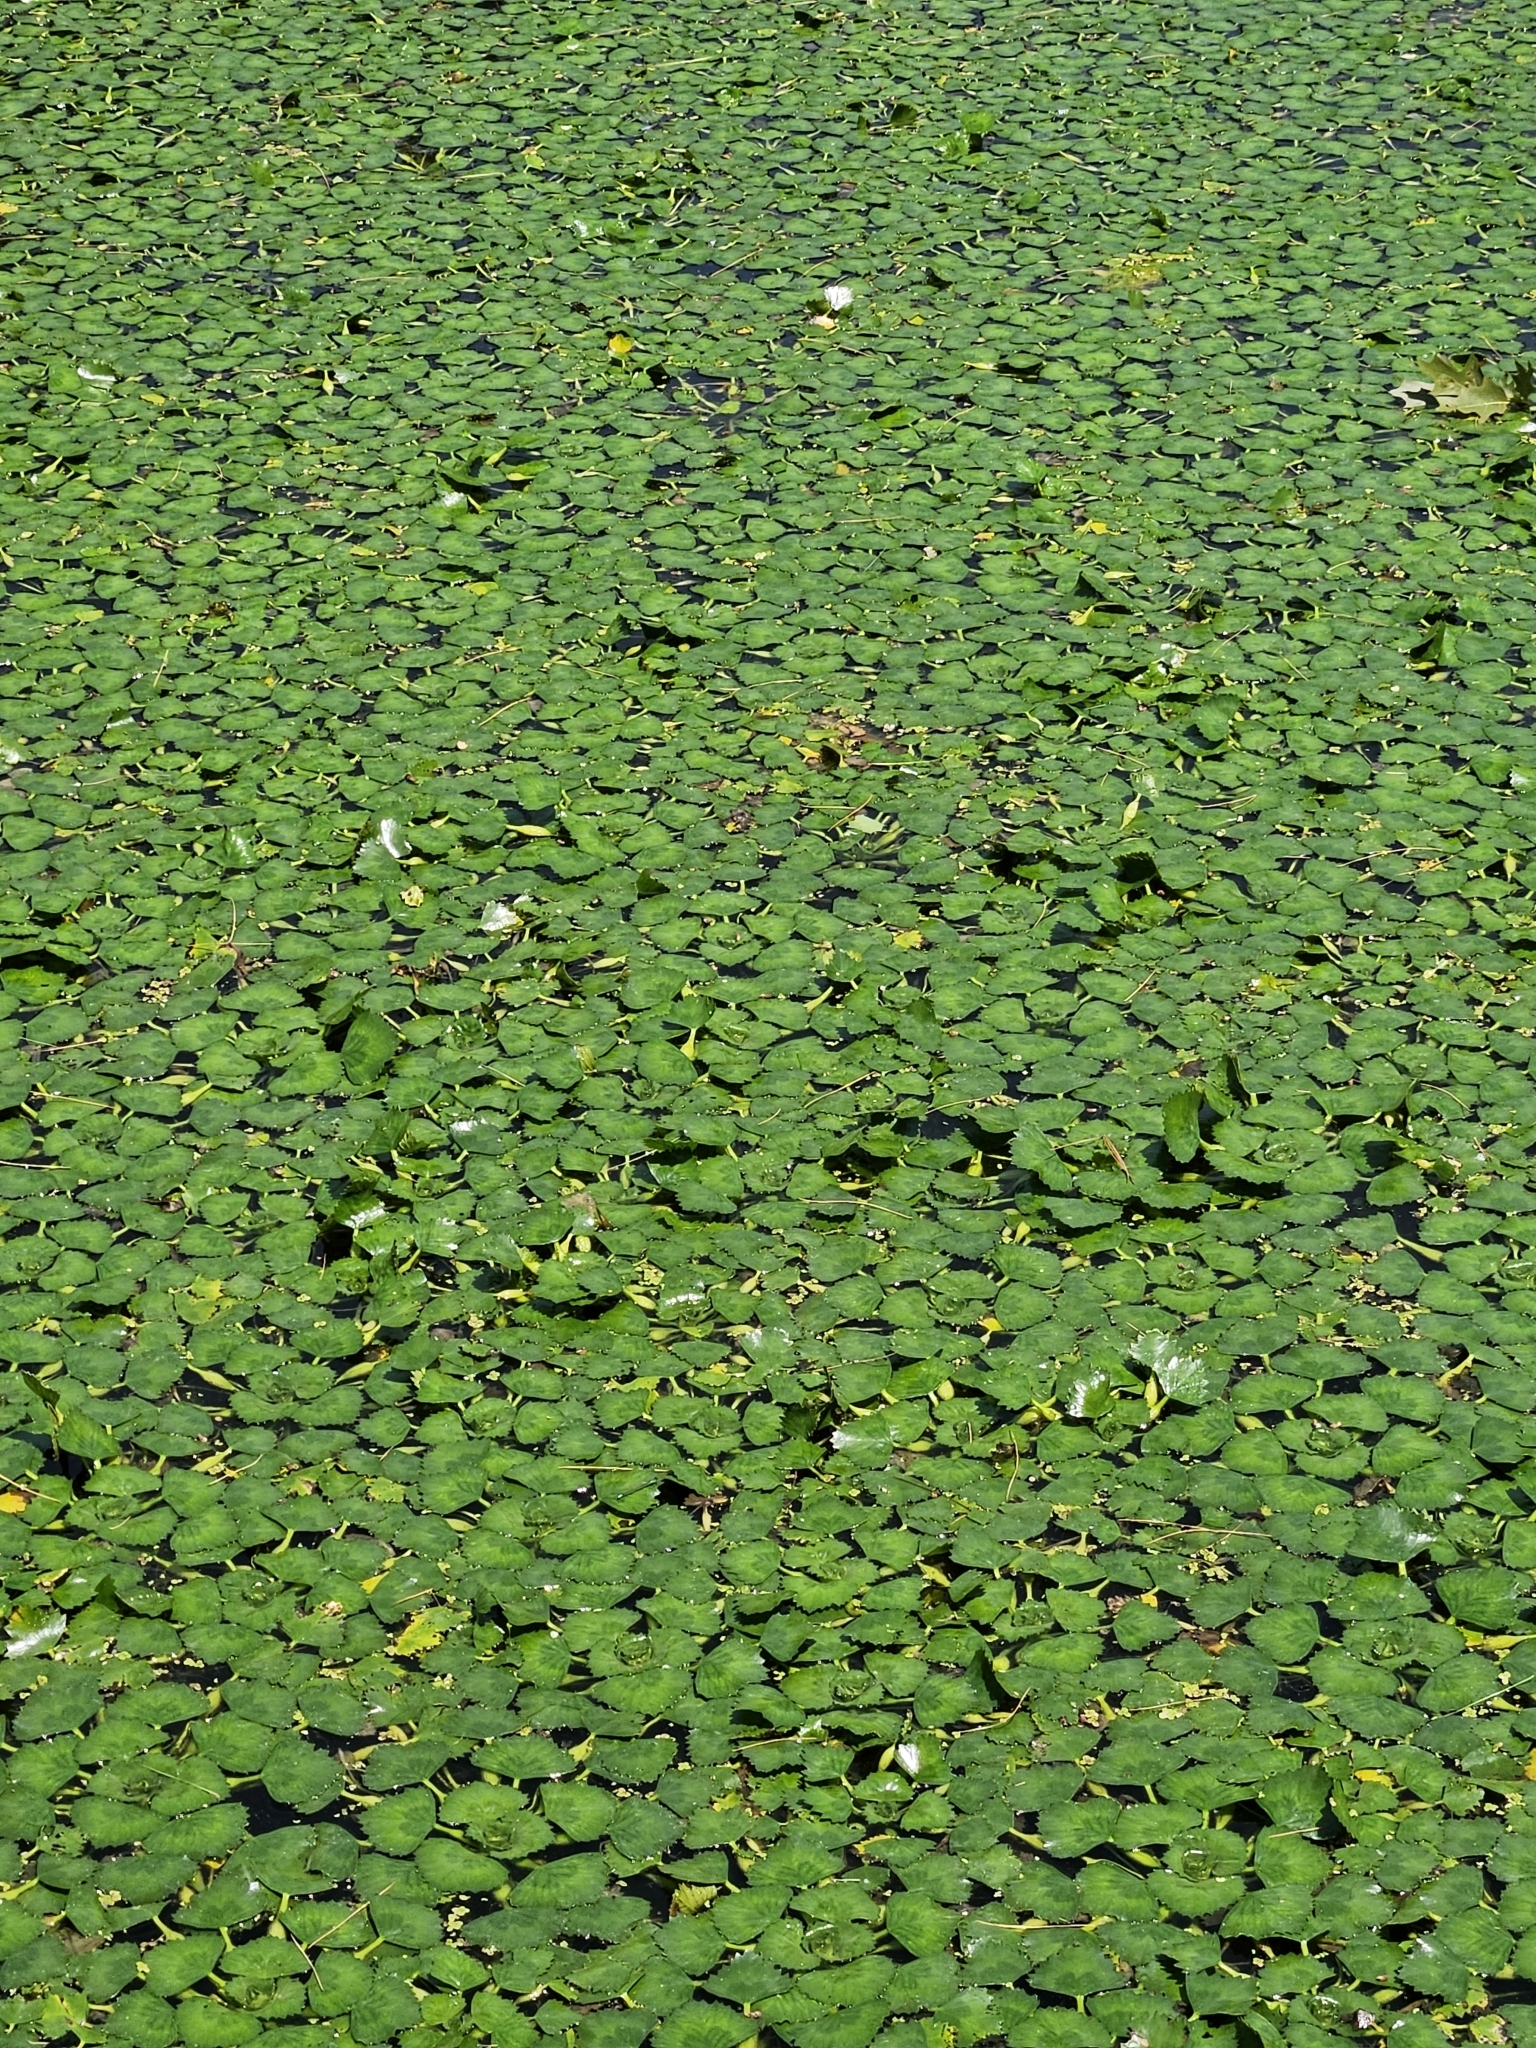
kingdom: Plantae
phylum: Tracheophyta
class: Magnoliopsida
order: Myrtales
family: Lythraceae
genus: Trapa
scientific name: Trapa natans
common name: Water chestnut
